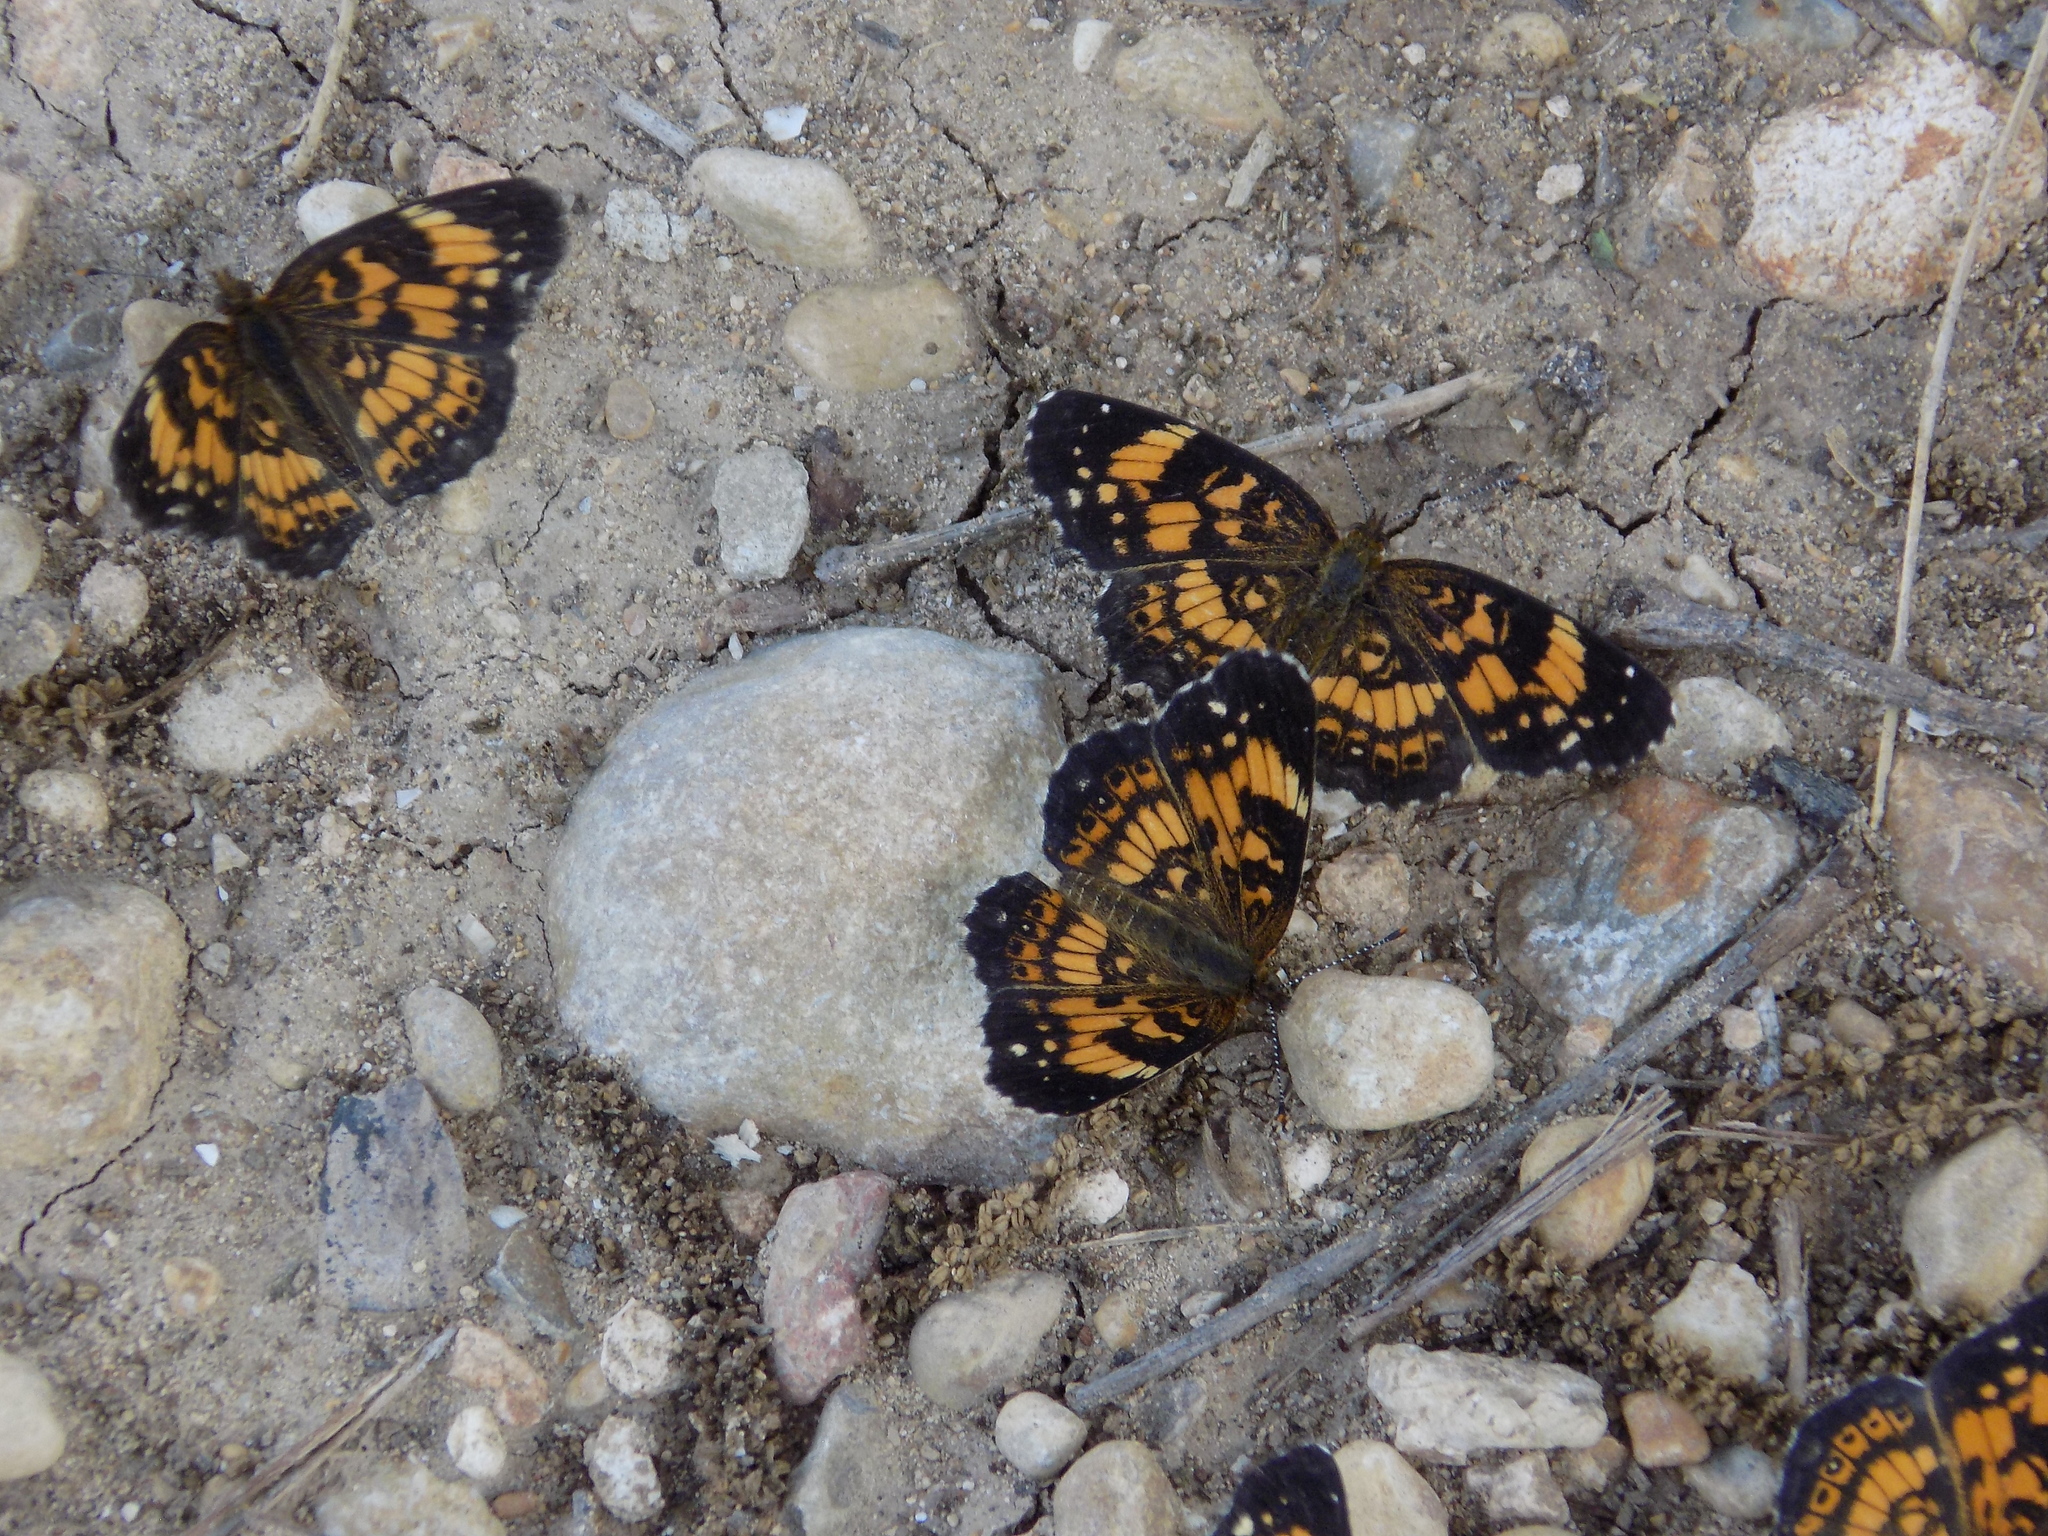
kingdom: Animalia
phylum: Arthropoda
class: Insecta
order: Lepidoptera
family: Nymphalidae
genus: Chlosyne
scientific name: Chlosyne nycteis
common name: Silvery checkerspot
